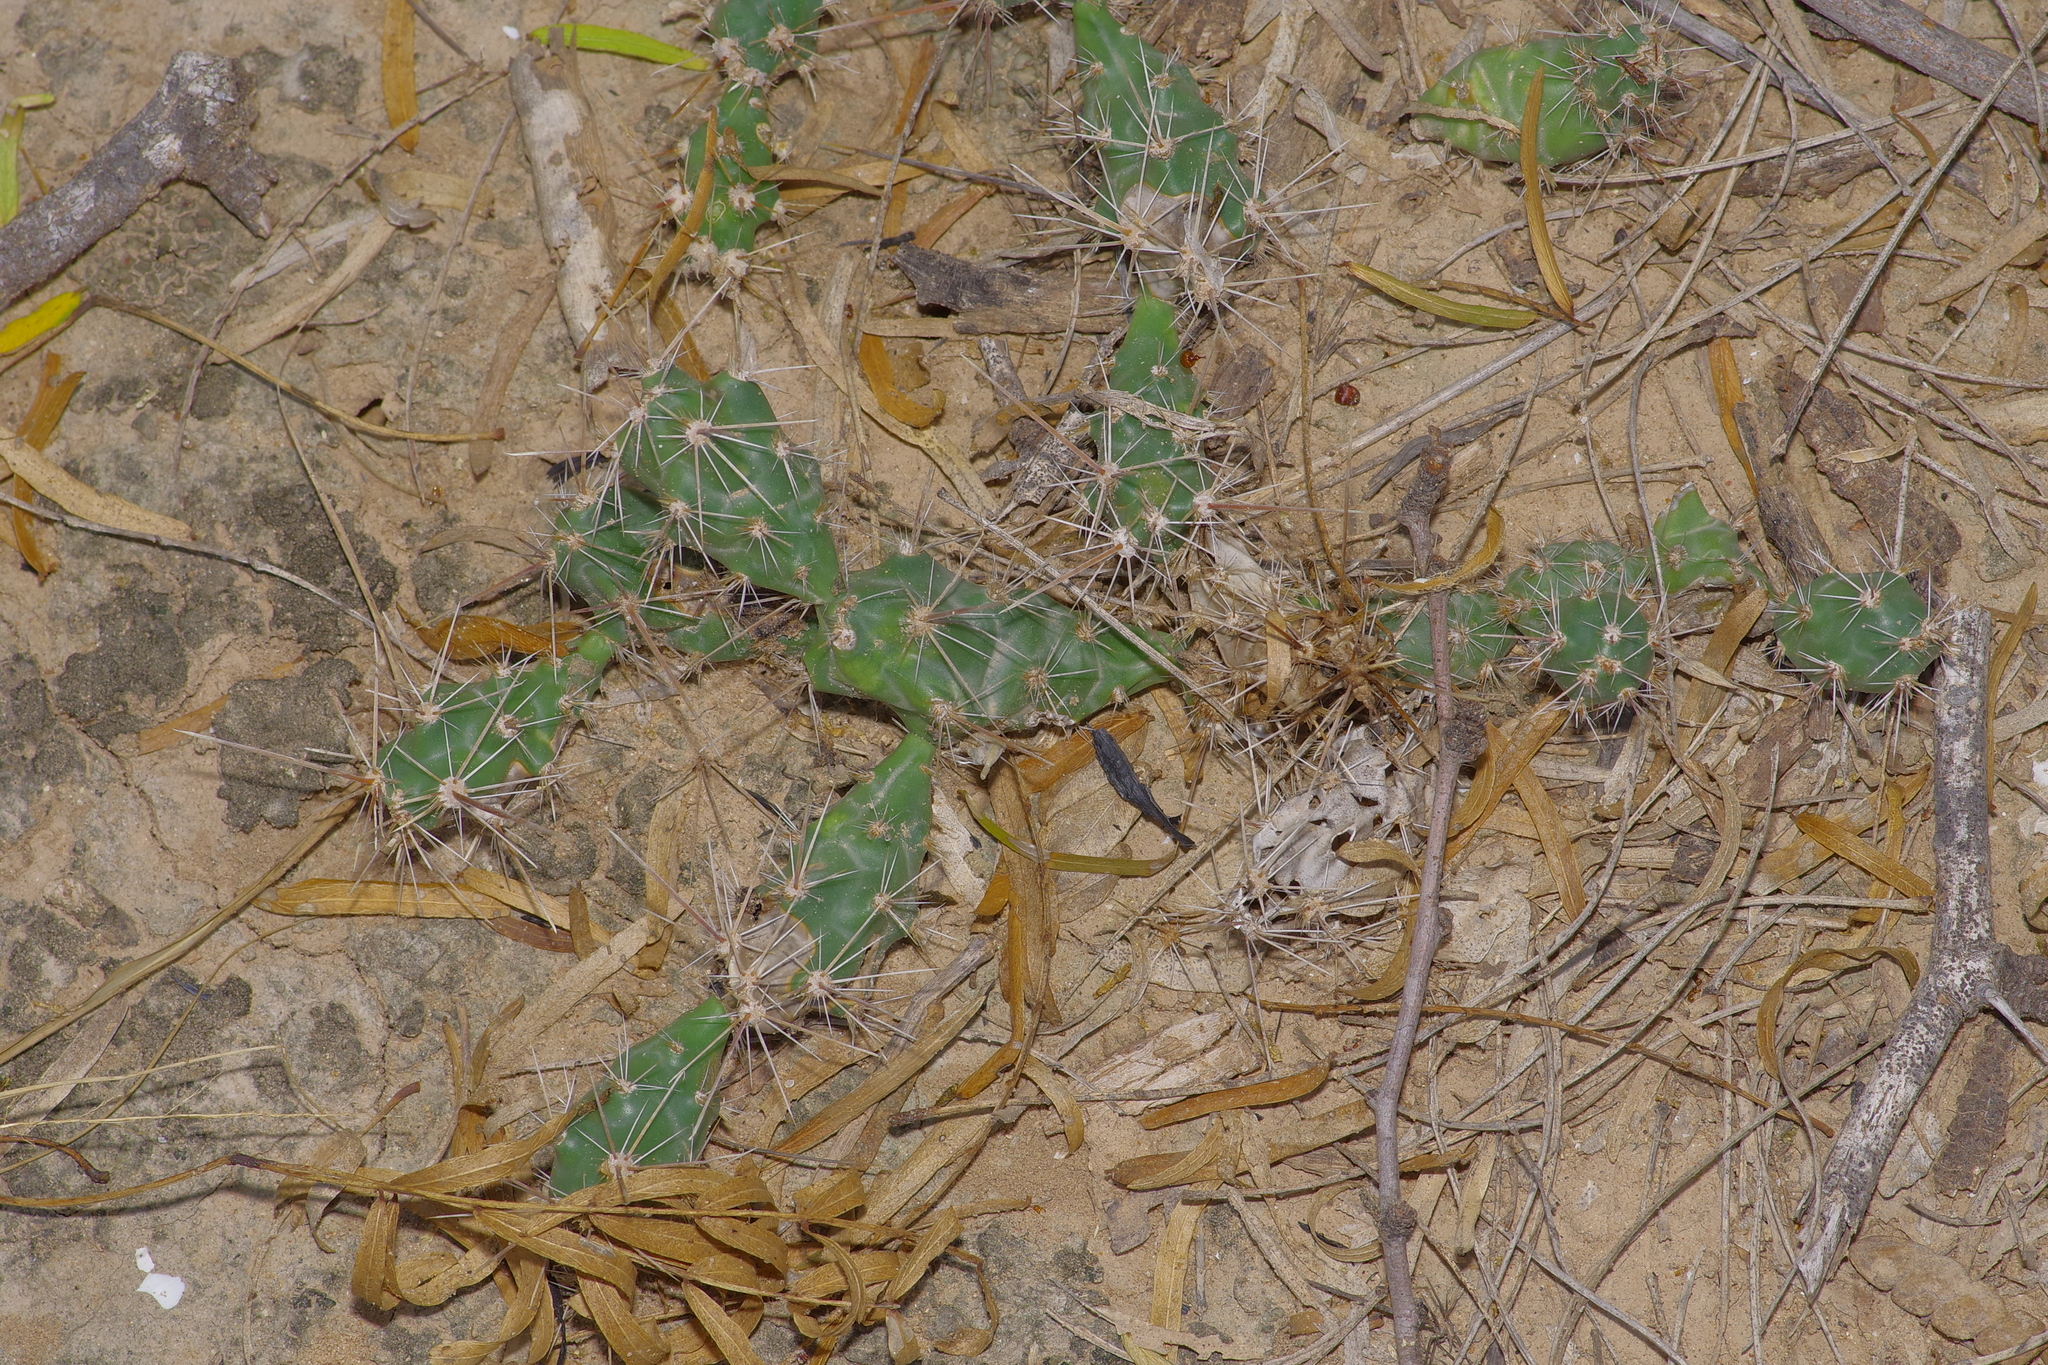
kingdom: Plantae
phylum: Tracheophyta
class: Magnoliopsida
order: Caryophyllales
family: Cactaceae
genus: Grusonia
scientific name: Grusonia schottii
